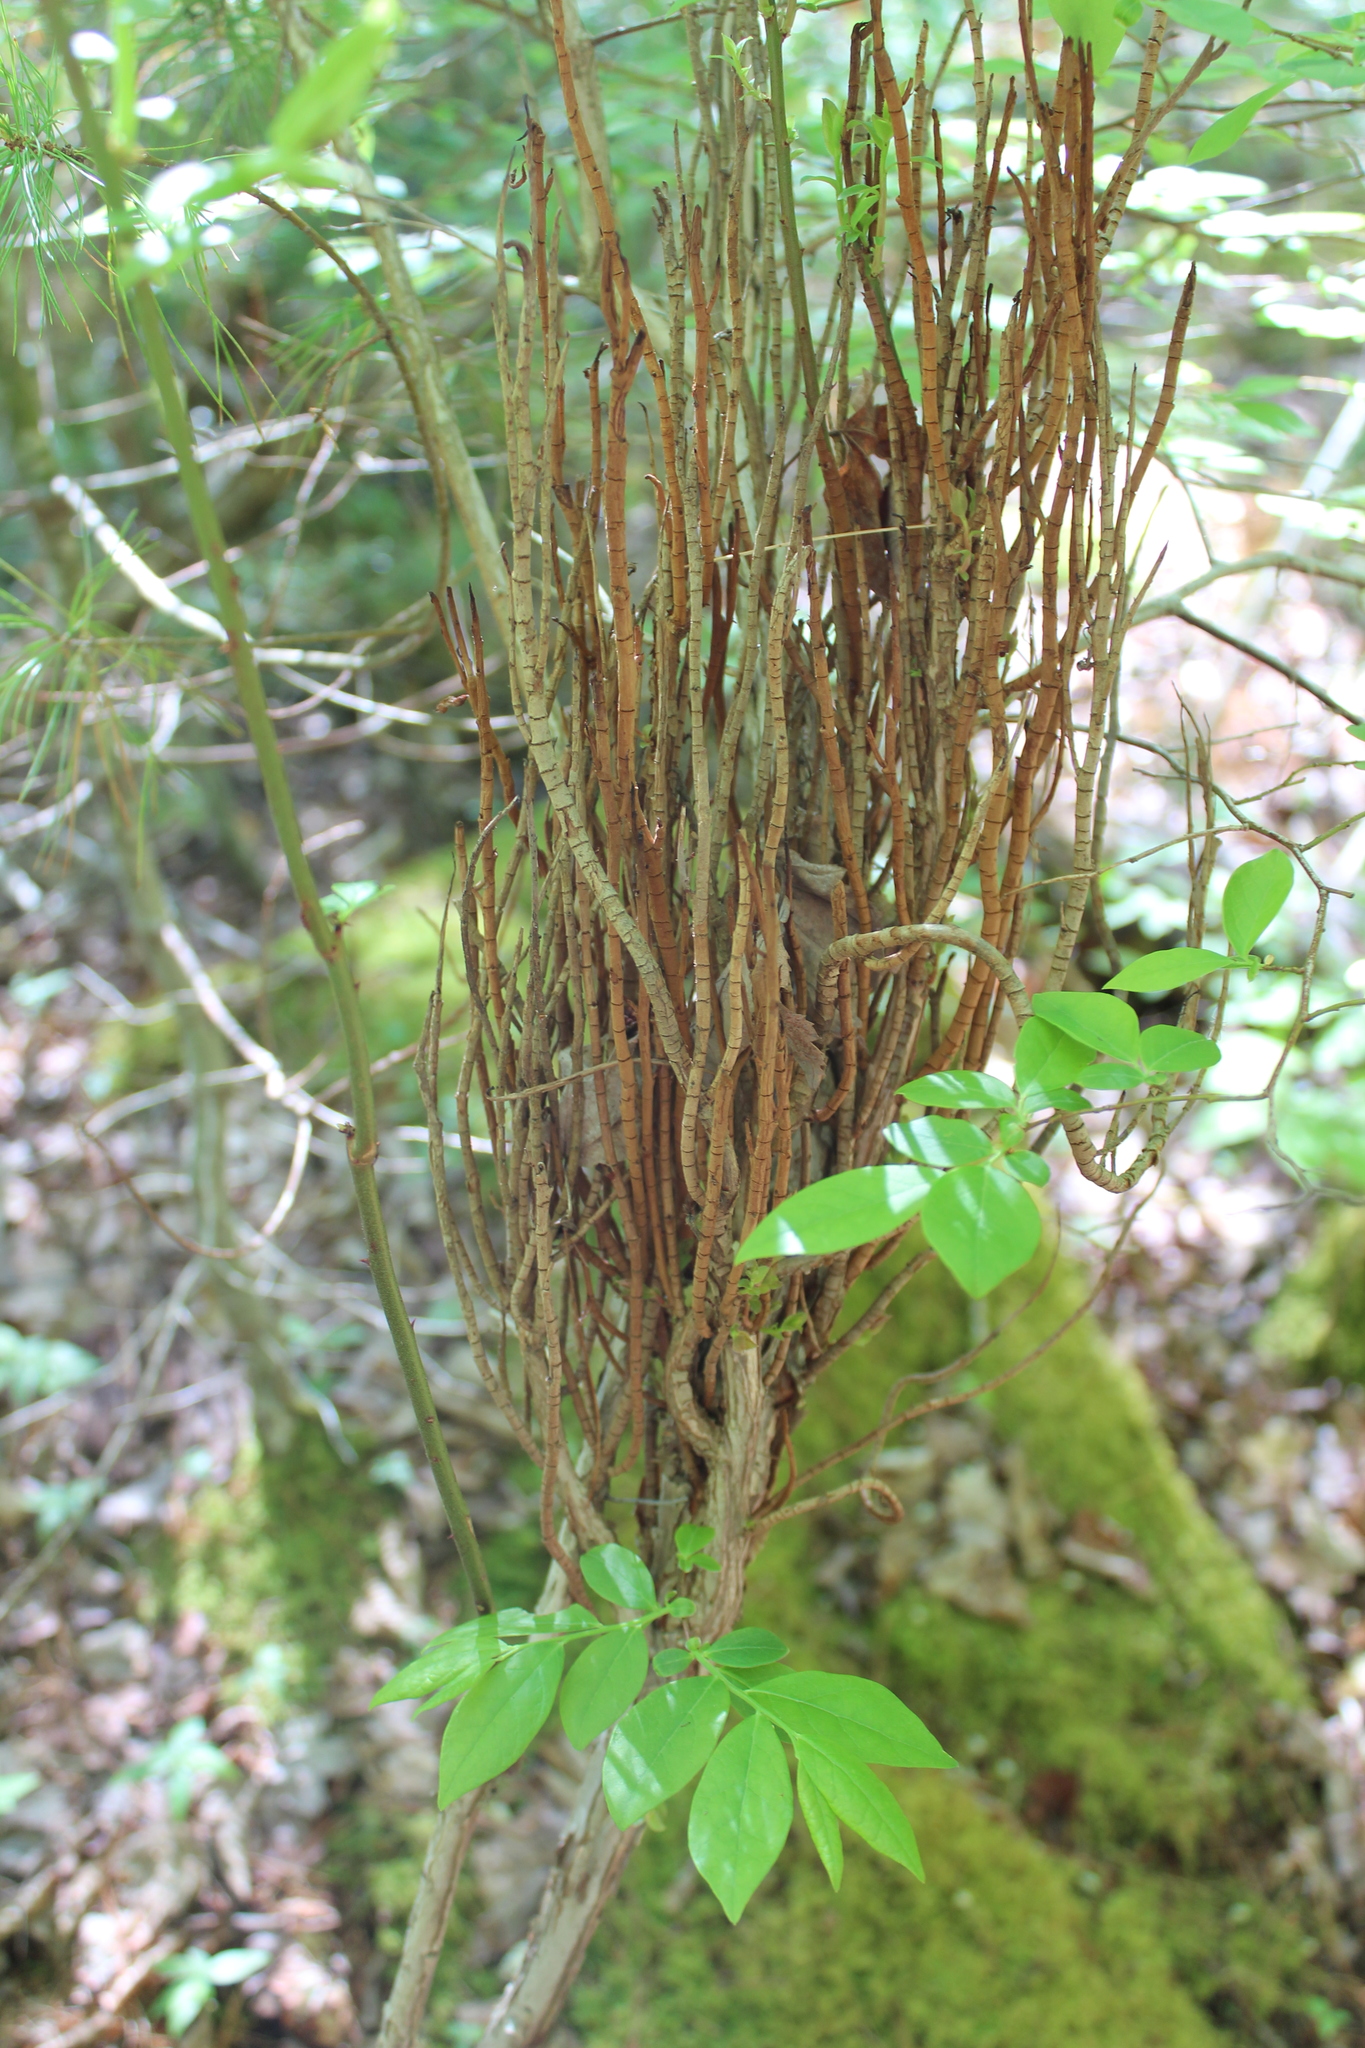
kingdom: Fungi
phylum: Basidiomycota
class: Pucciniomycetes
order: Pucciniales
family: Pucciniastraceae
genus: Calyptospora
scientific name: Calyptospora columnaris
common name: Huckleberry broom rust fungus
